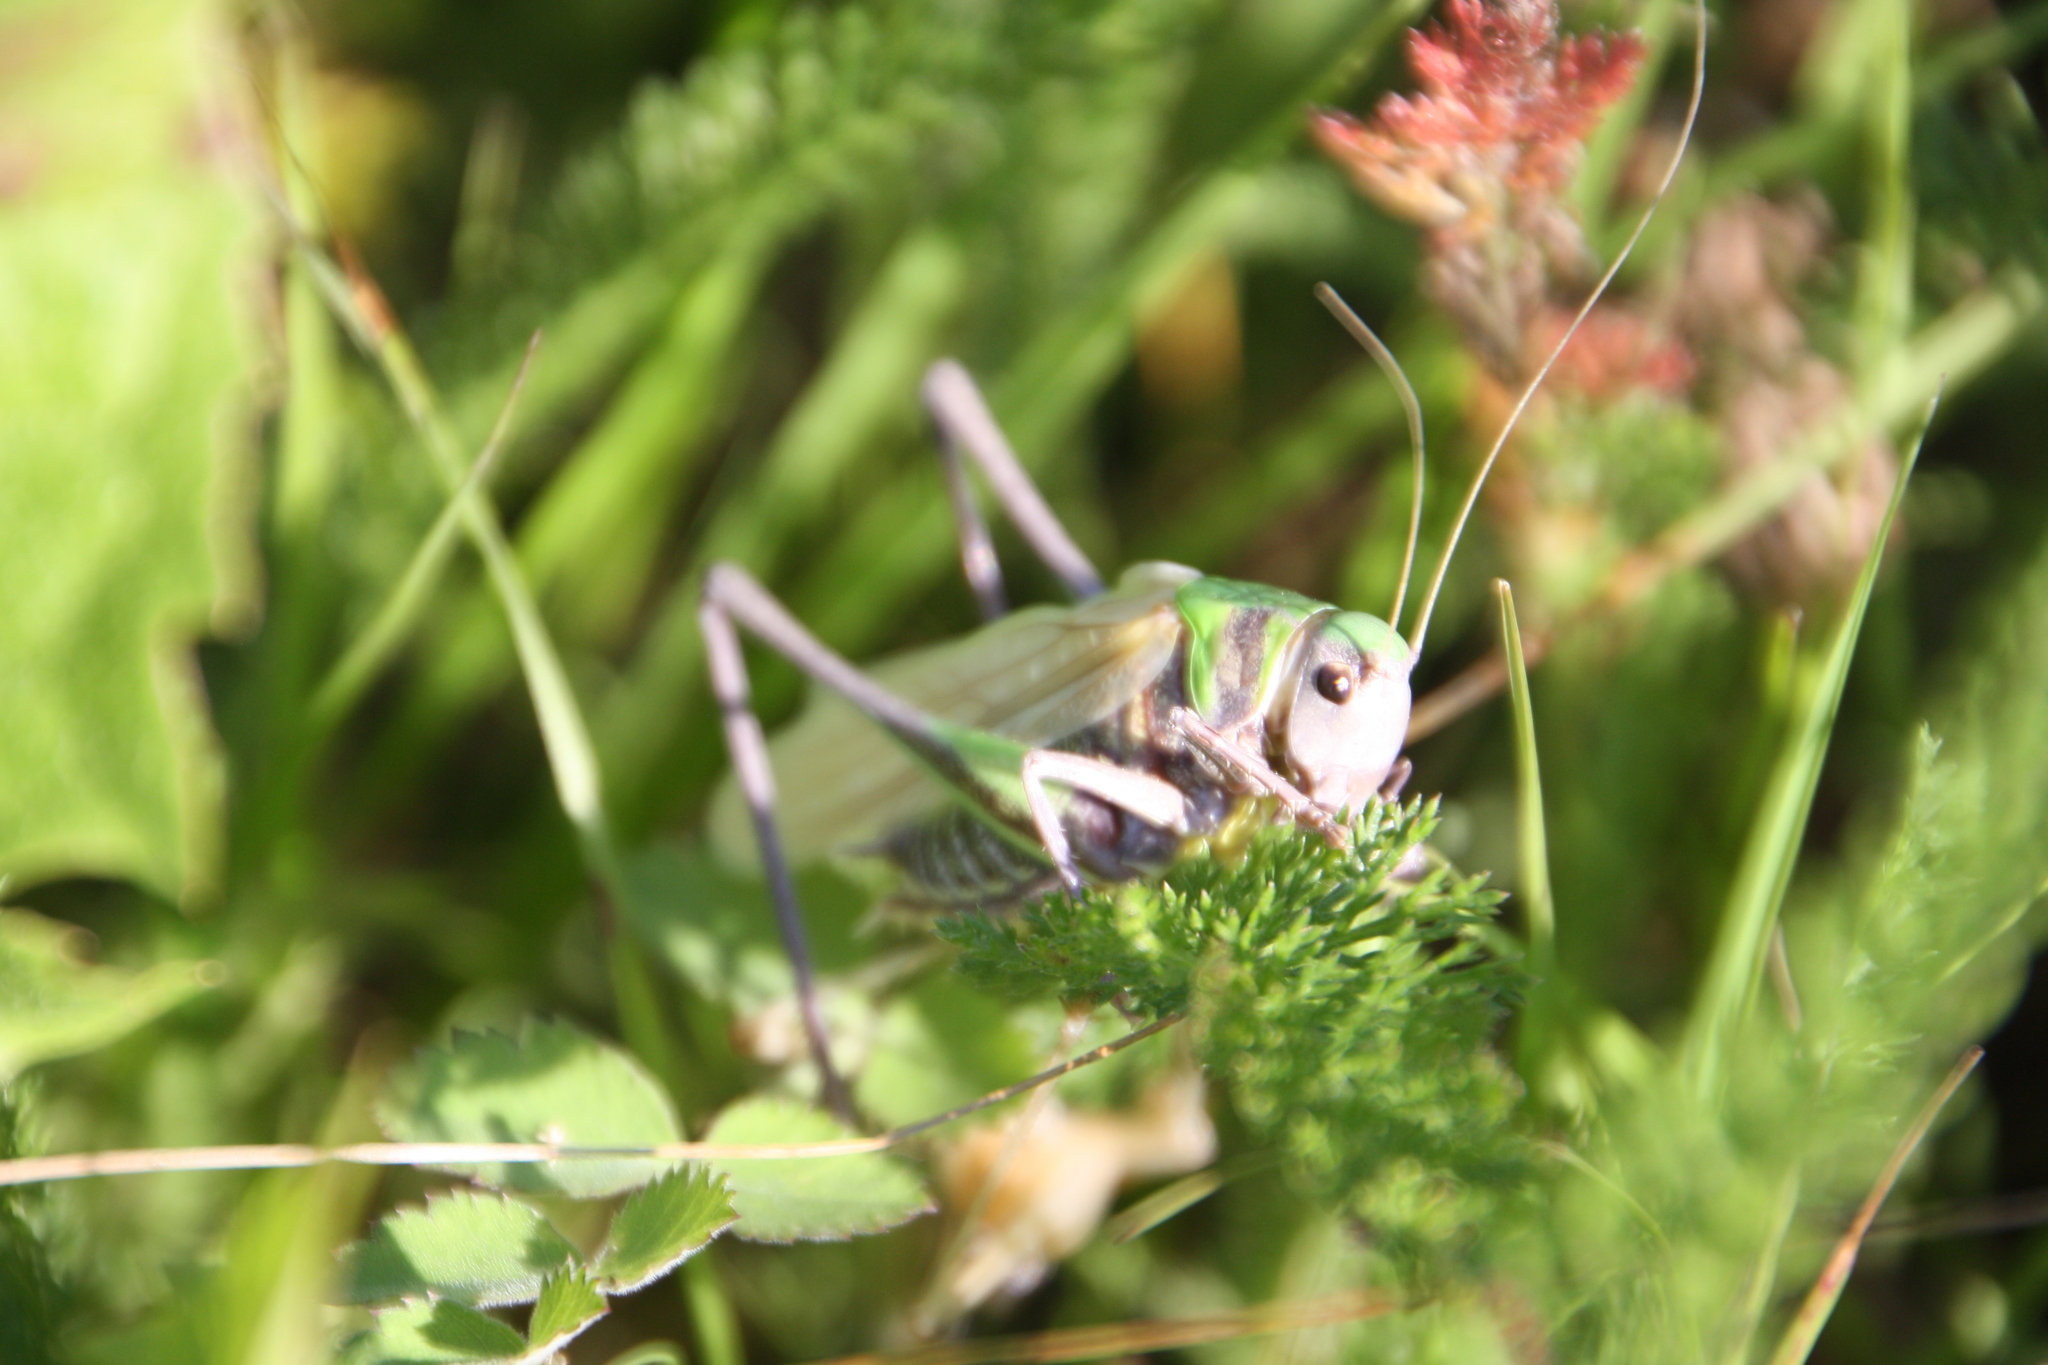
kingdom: Animalia
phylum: Arthropoda
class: Insecta
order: Orthoptera
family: Tettigoniidae
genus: Decticus
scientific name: Decticus verrucivorus
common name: Wart-biter
